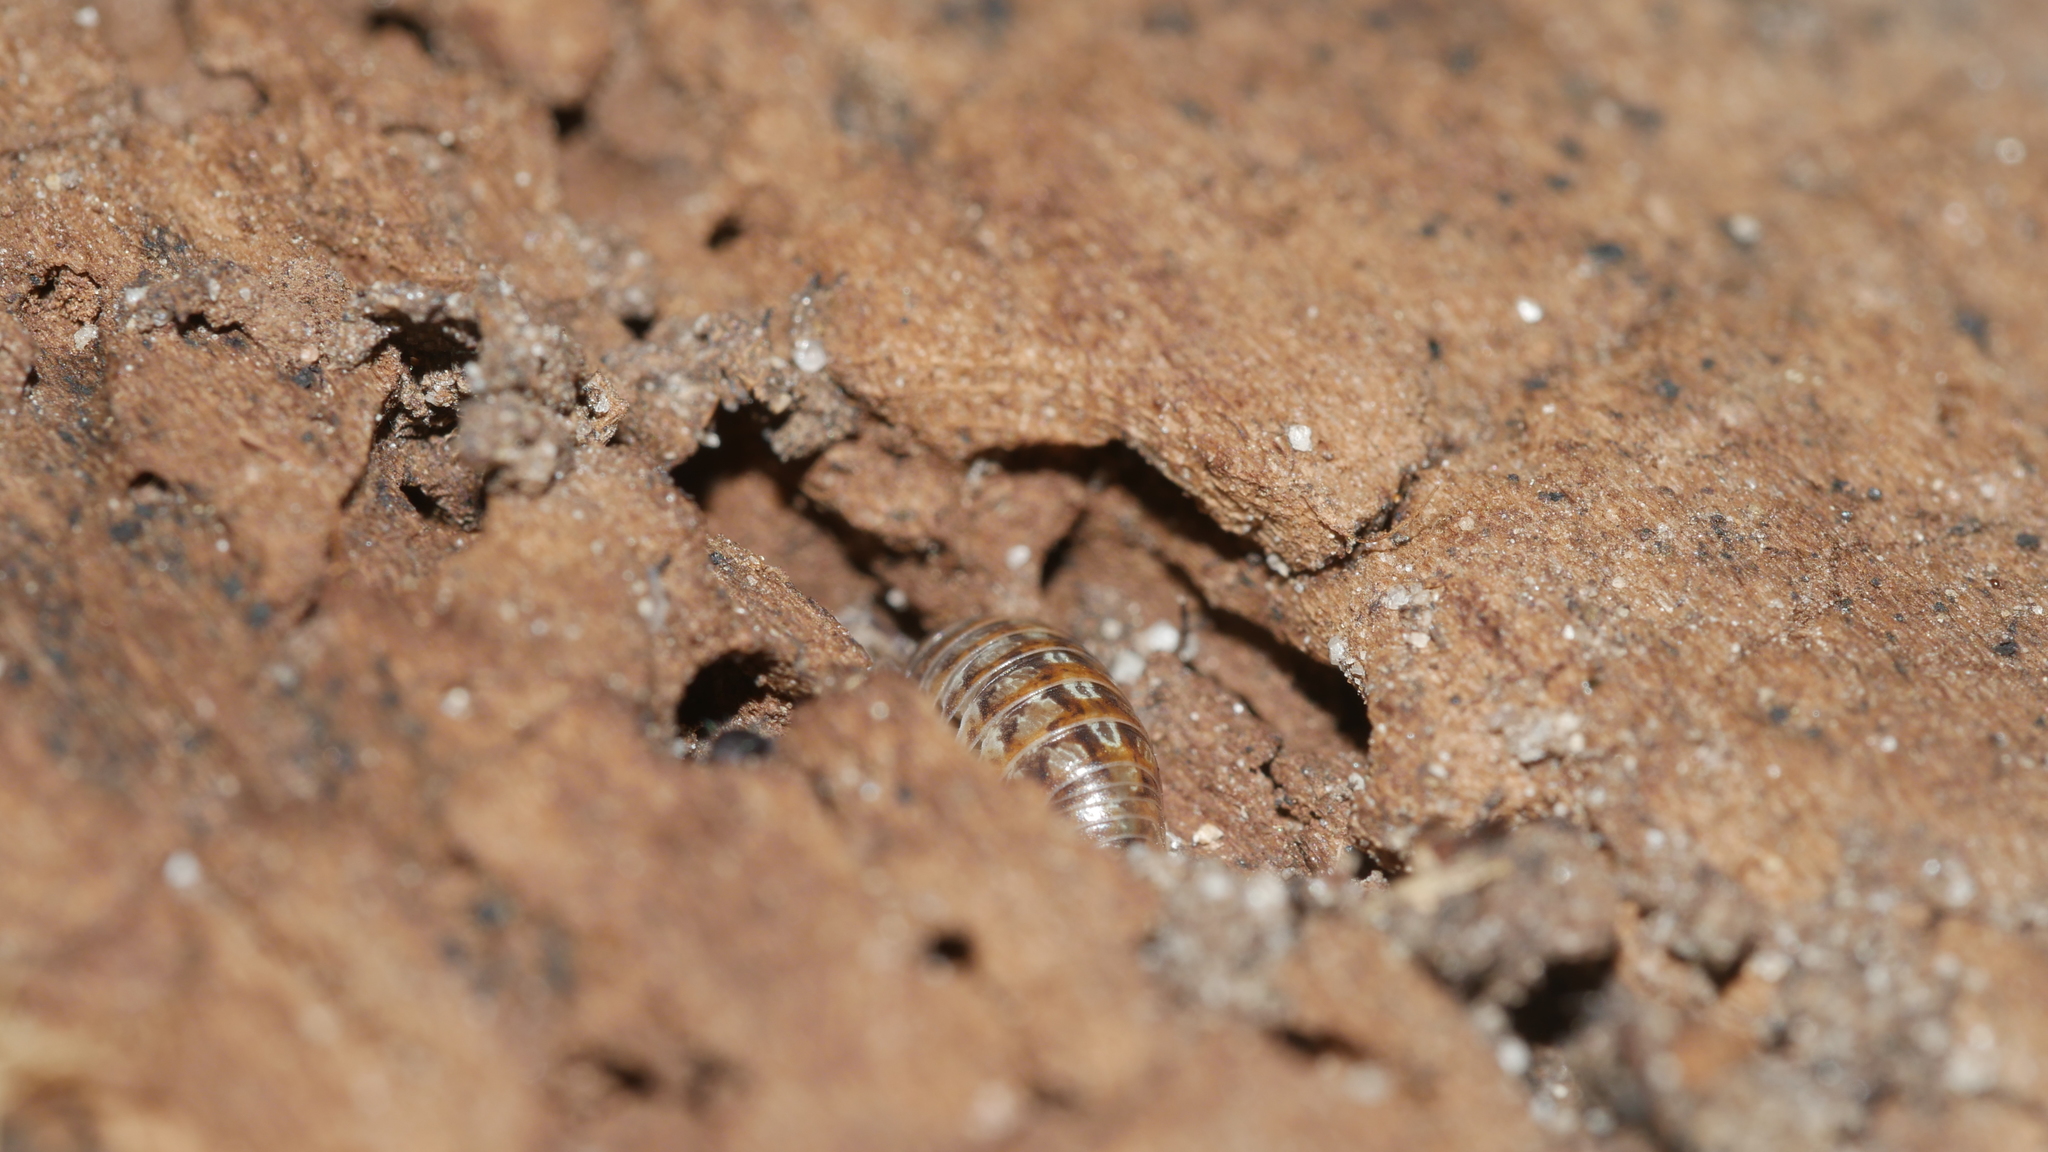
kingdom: Animalia
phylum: Arthropoda
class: Malacostraca
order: Isopoda
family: Armadillidiidae
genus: Armadillidium
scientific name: Armadillidium vulgare
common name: Common pill woodlouse
